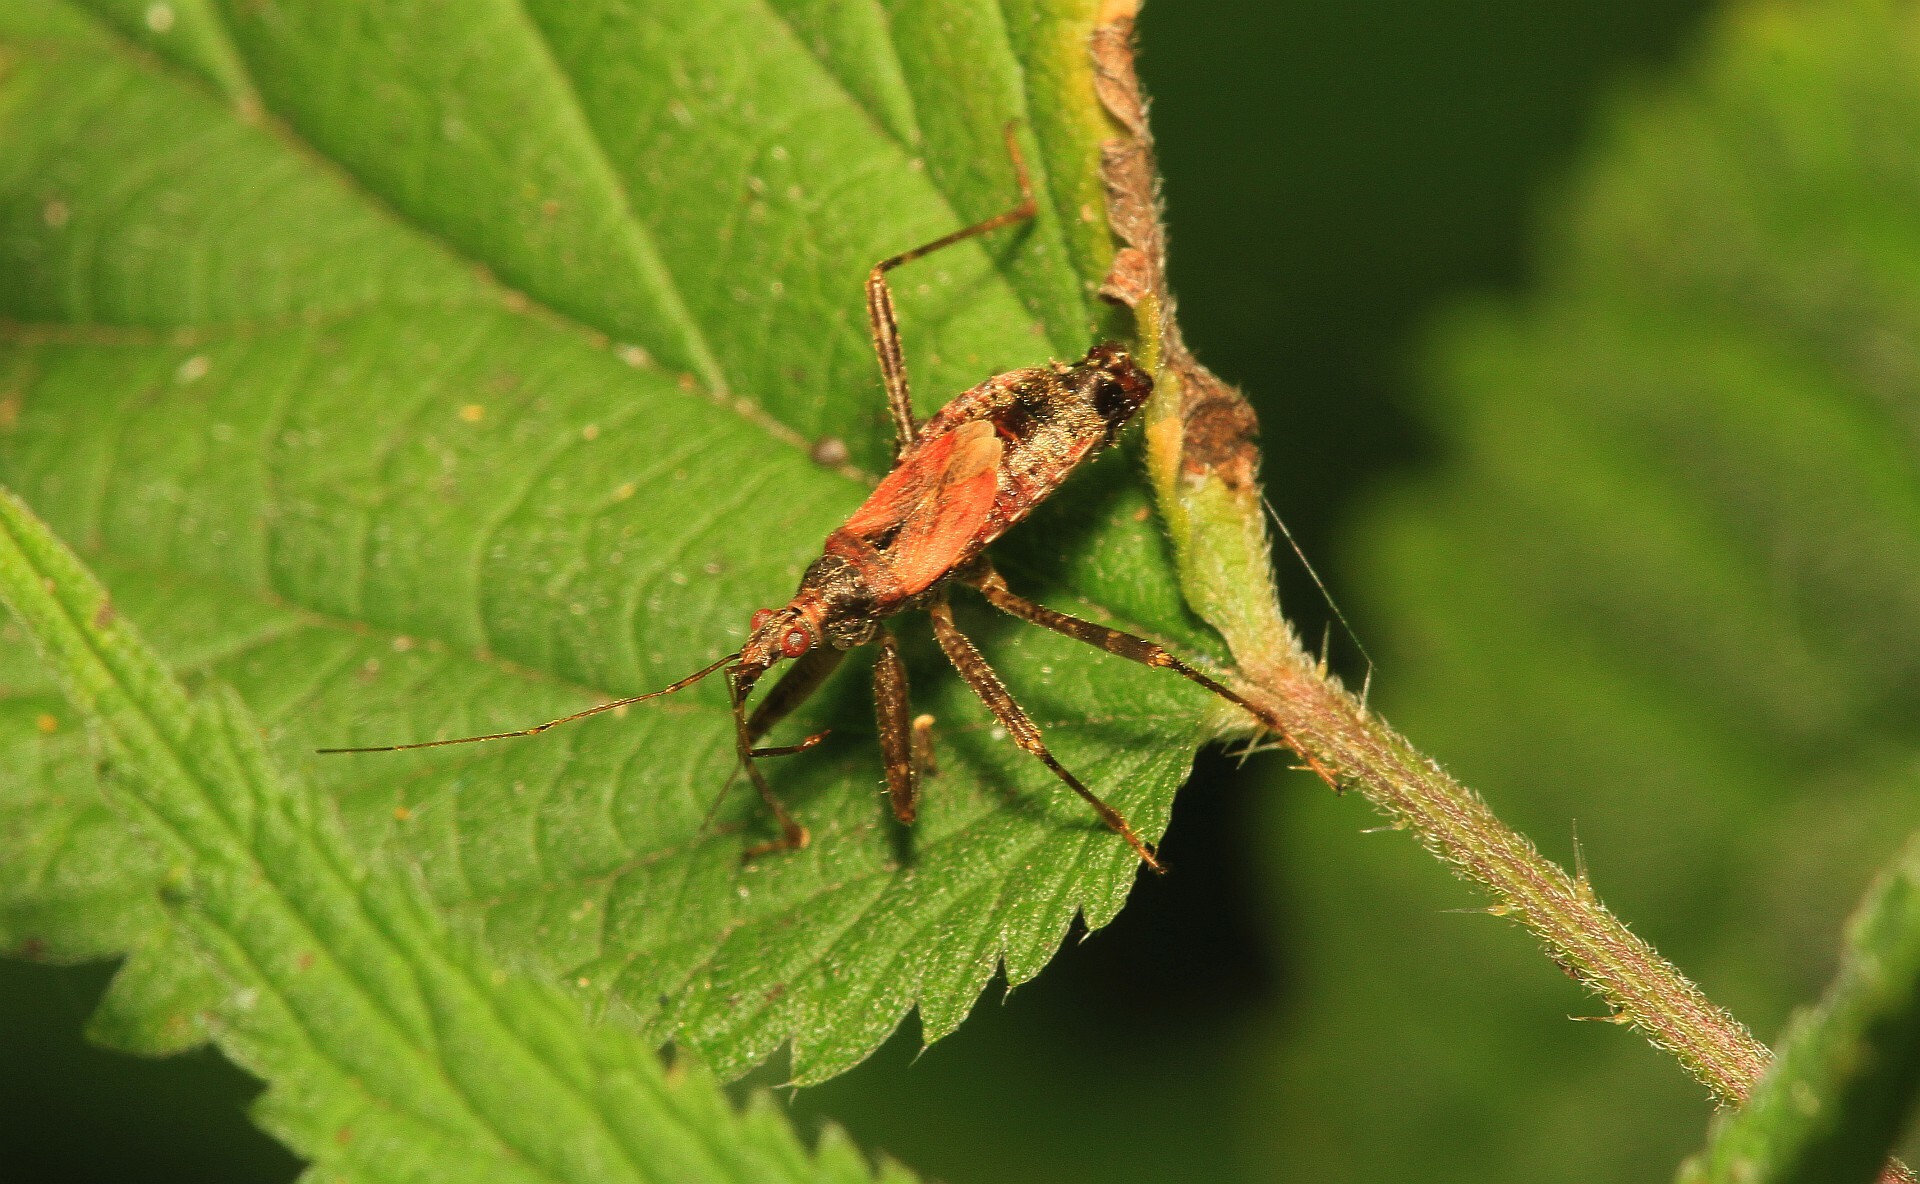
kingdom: Animalia
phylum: Arthropoda
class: Insecta
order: Hemiptera
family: Nabidae
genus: Himacerus
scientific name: Himacerus apterus
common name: Tree damsel bug
